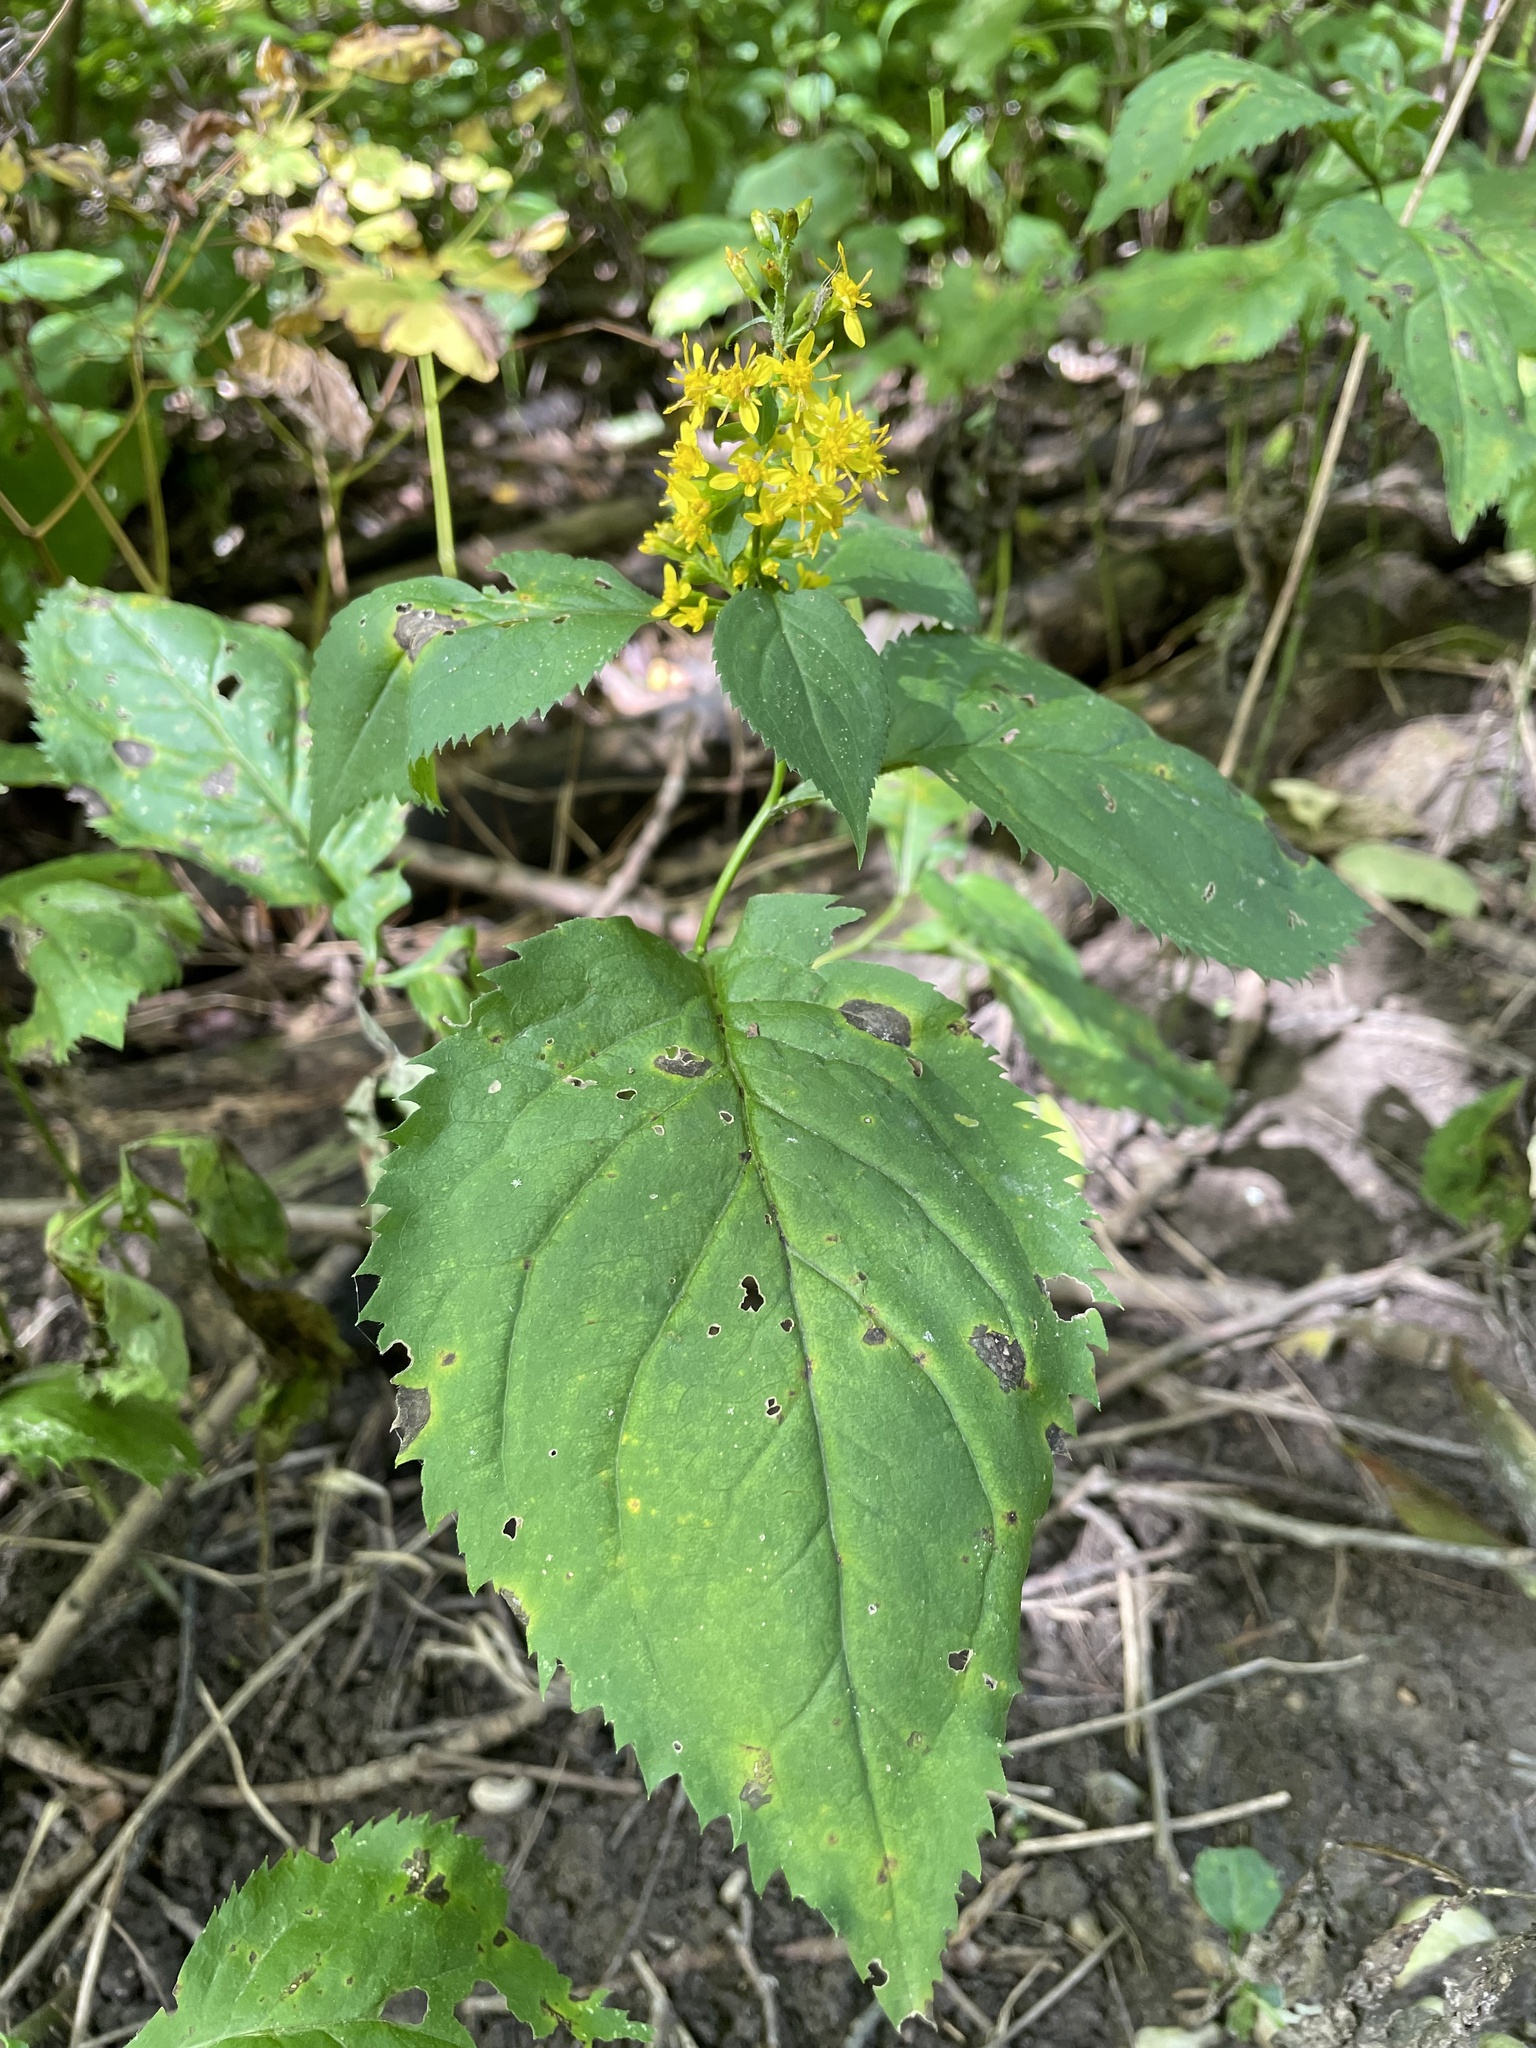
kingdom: Plantae
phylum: Tracheophyta
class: Magnoliopsida
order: Asterales
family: Asteraceae
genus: Solidago
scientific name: Solidago flexicaulis
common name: Zig-zag goldenrod
